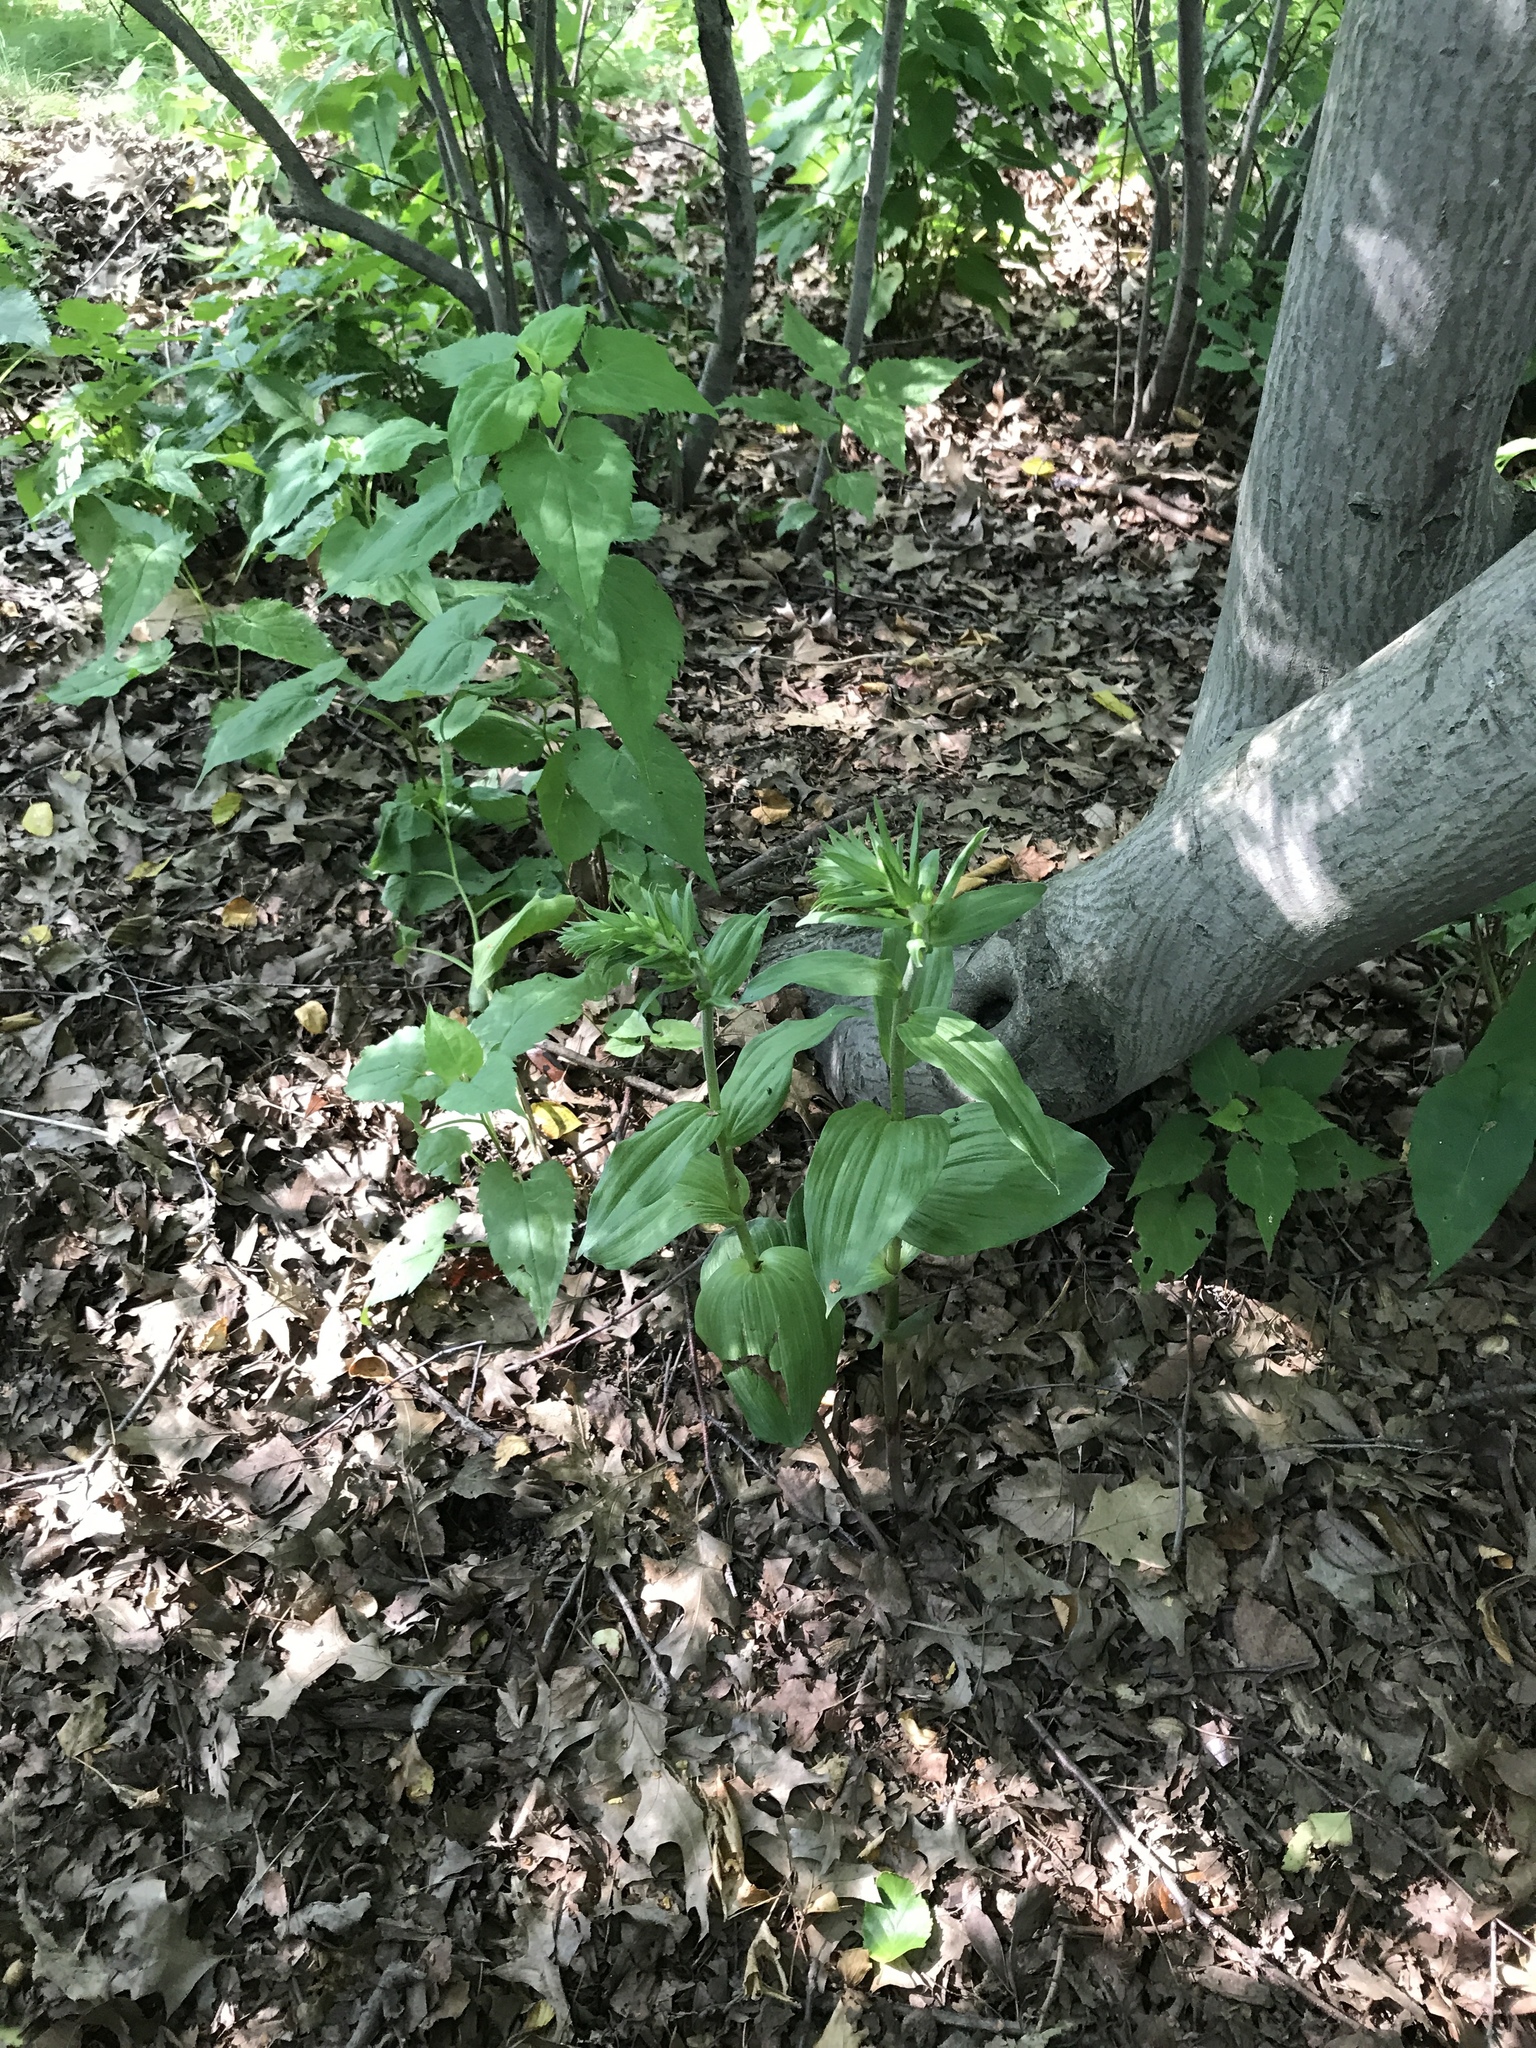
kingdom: Plantae
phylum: Tracheophyta
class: Liliopsida
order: Asparagales
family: Orchidaceae
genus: Epipactis
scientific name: Epipactis helleborine
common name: Broad-leaved helleborine
